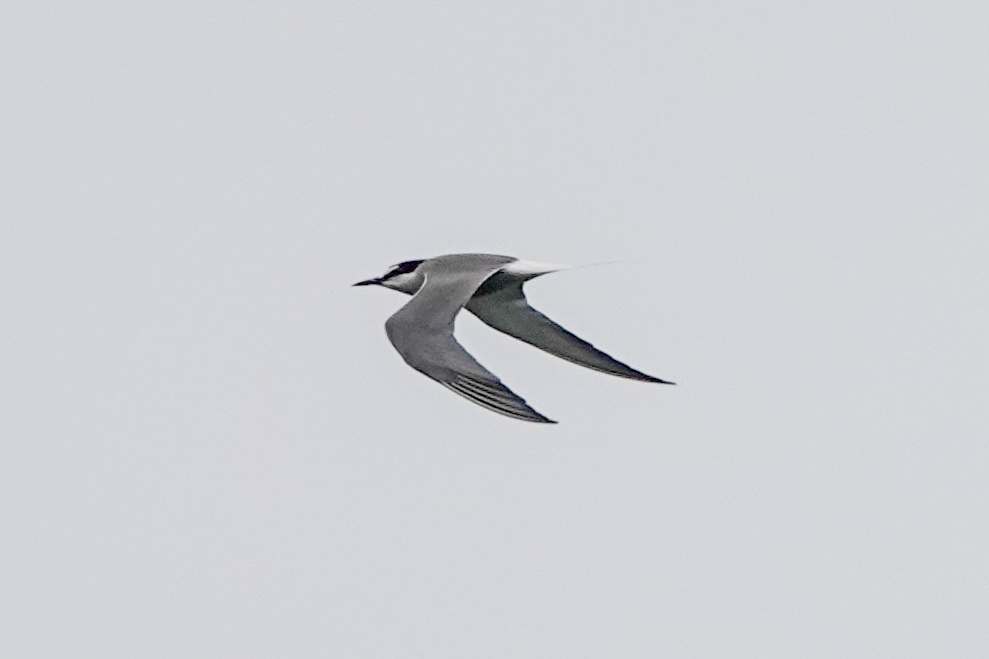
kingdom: Animalia
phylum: Chordata
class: Aves
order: Charadriiformes
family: Laridae
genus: Onychoprion
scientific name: Onychoprion aleuticus
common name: Aleutian tern
